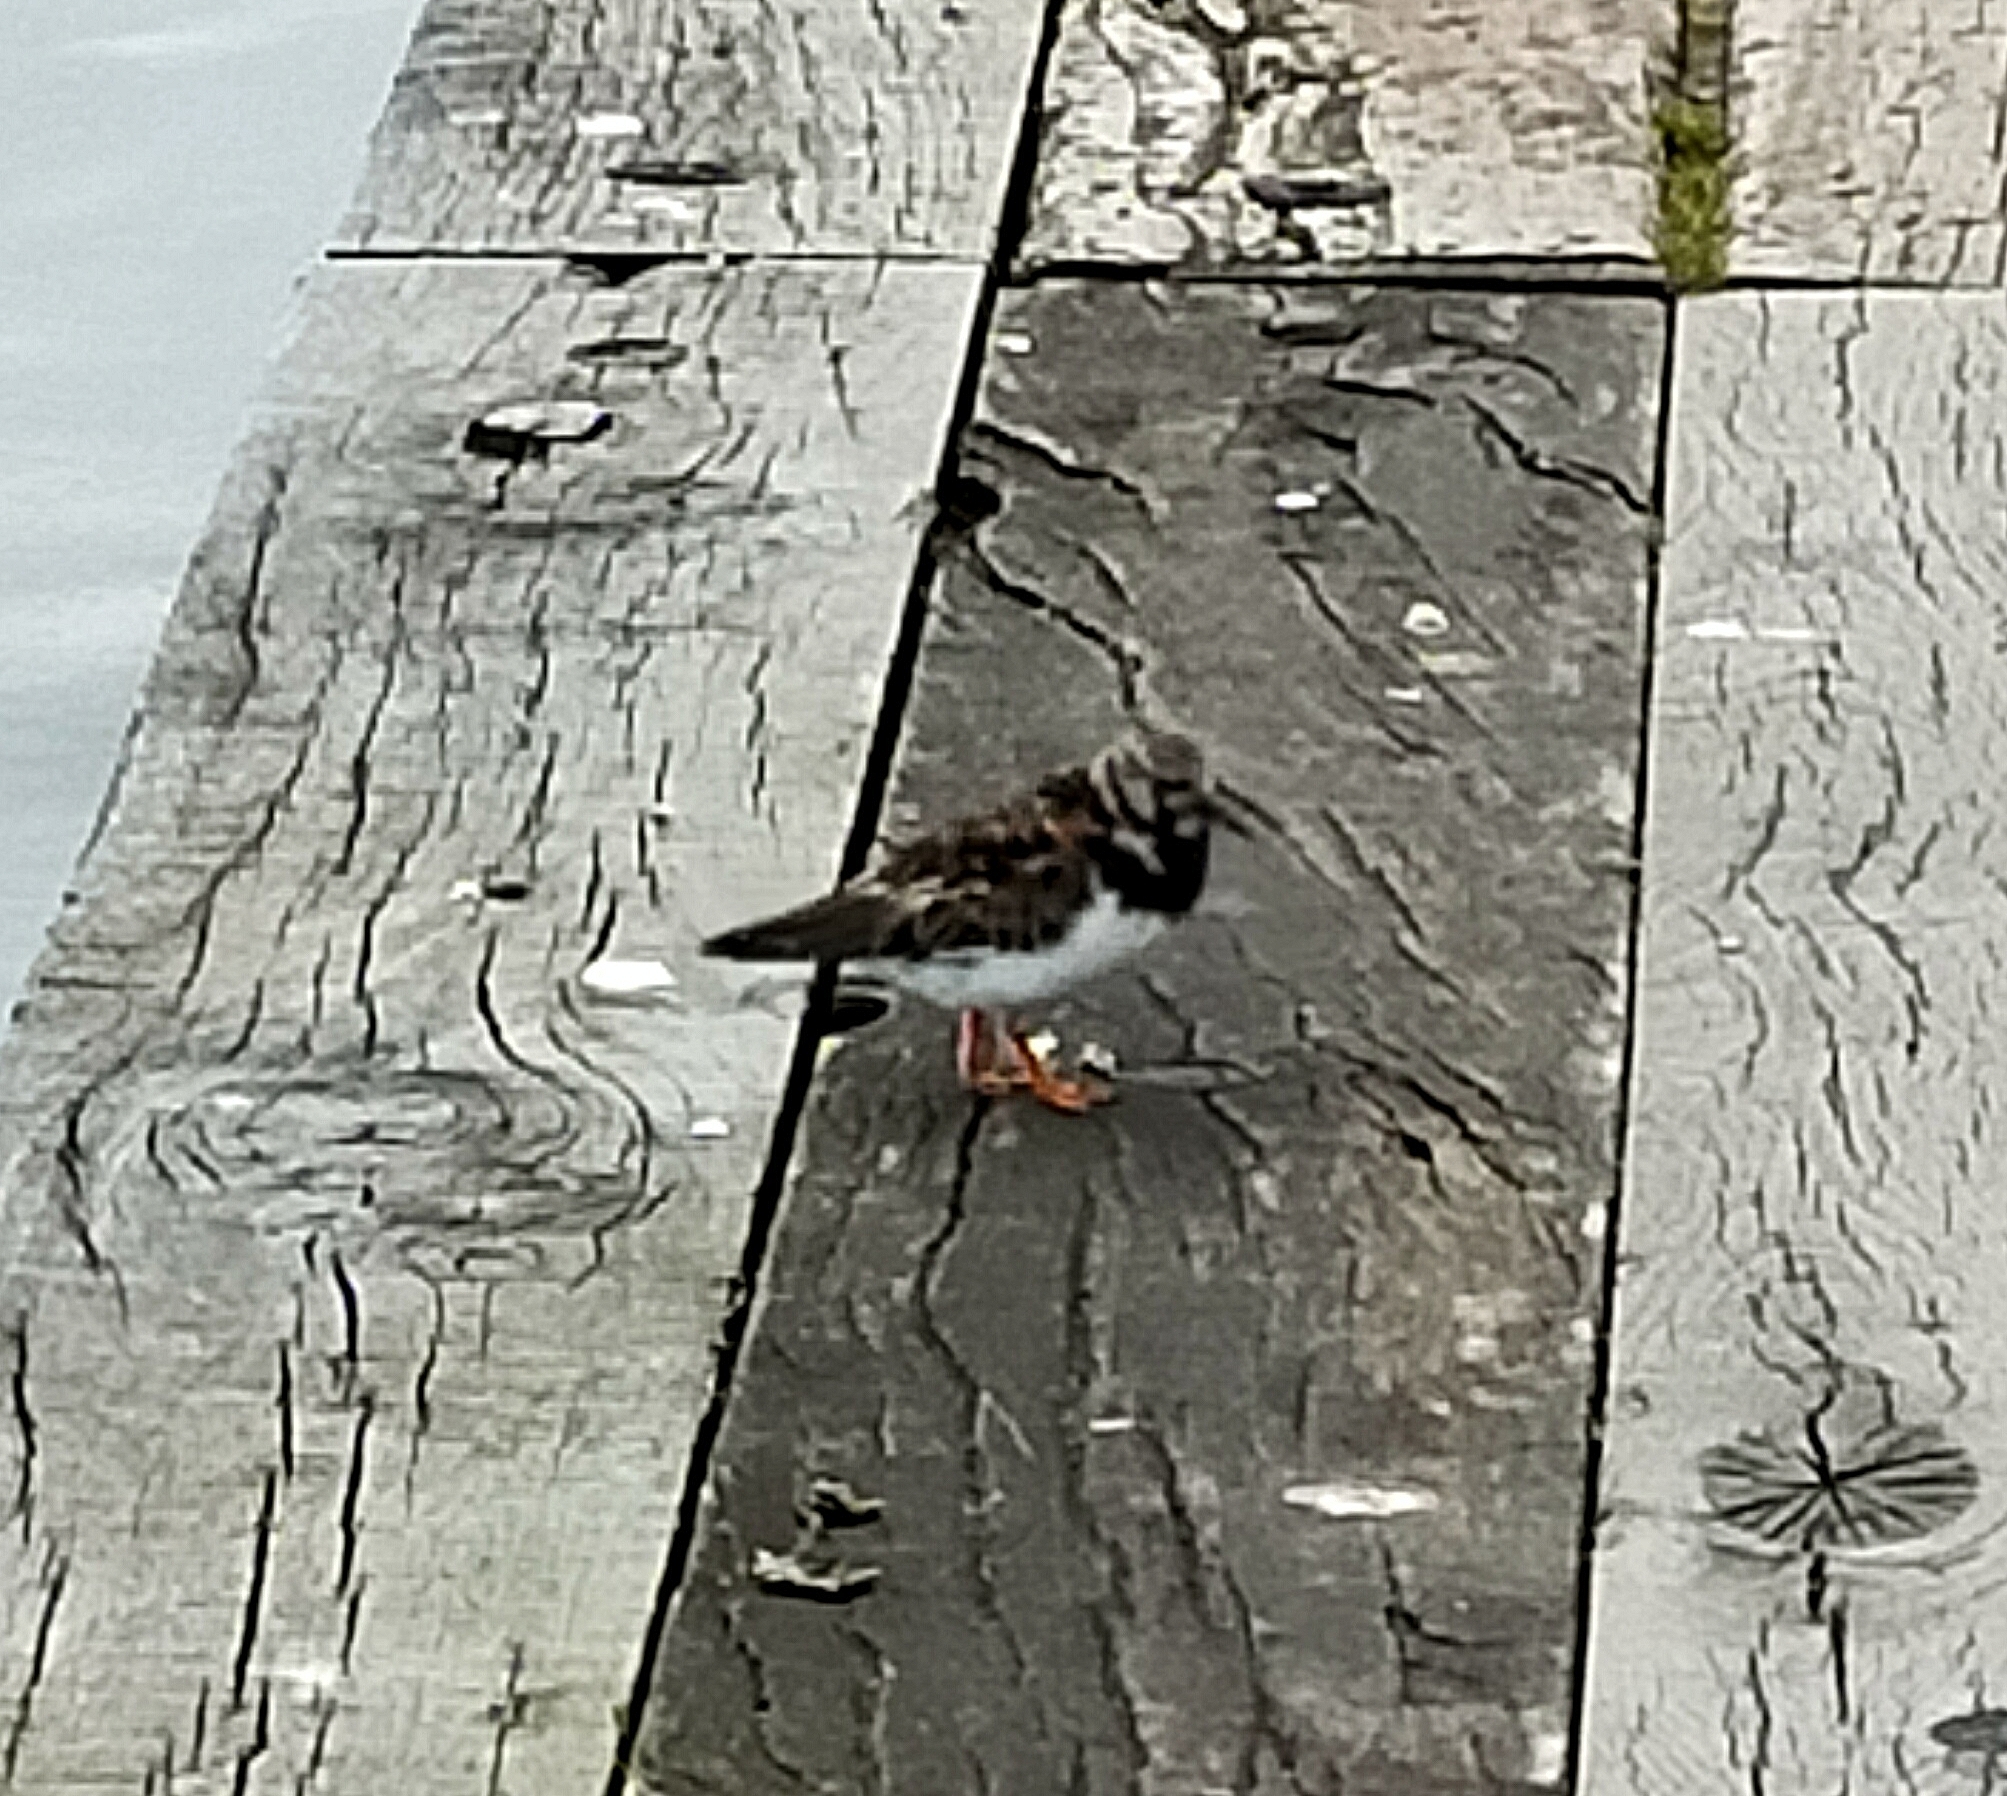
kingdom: Animalia
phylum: Chordata
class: Aves
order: Charadriiformes
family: Scolopacidae
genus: Arenaria
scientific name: Arenaria interpres
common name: Ruddy turnstone
